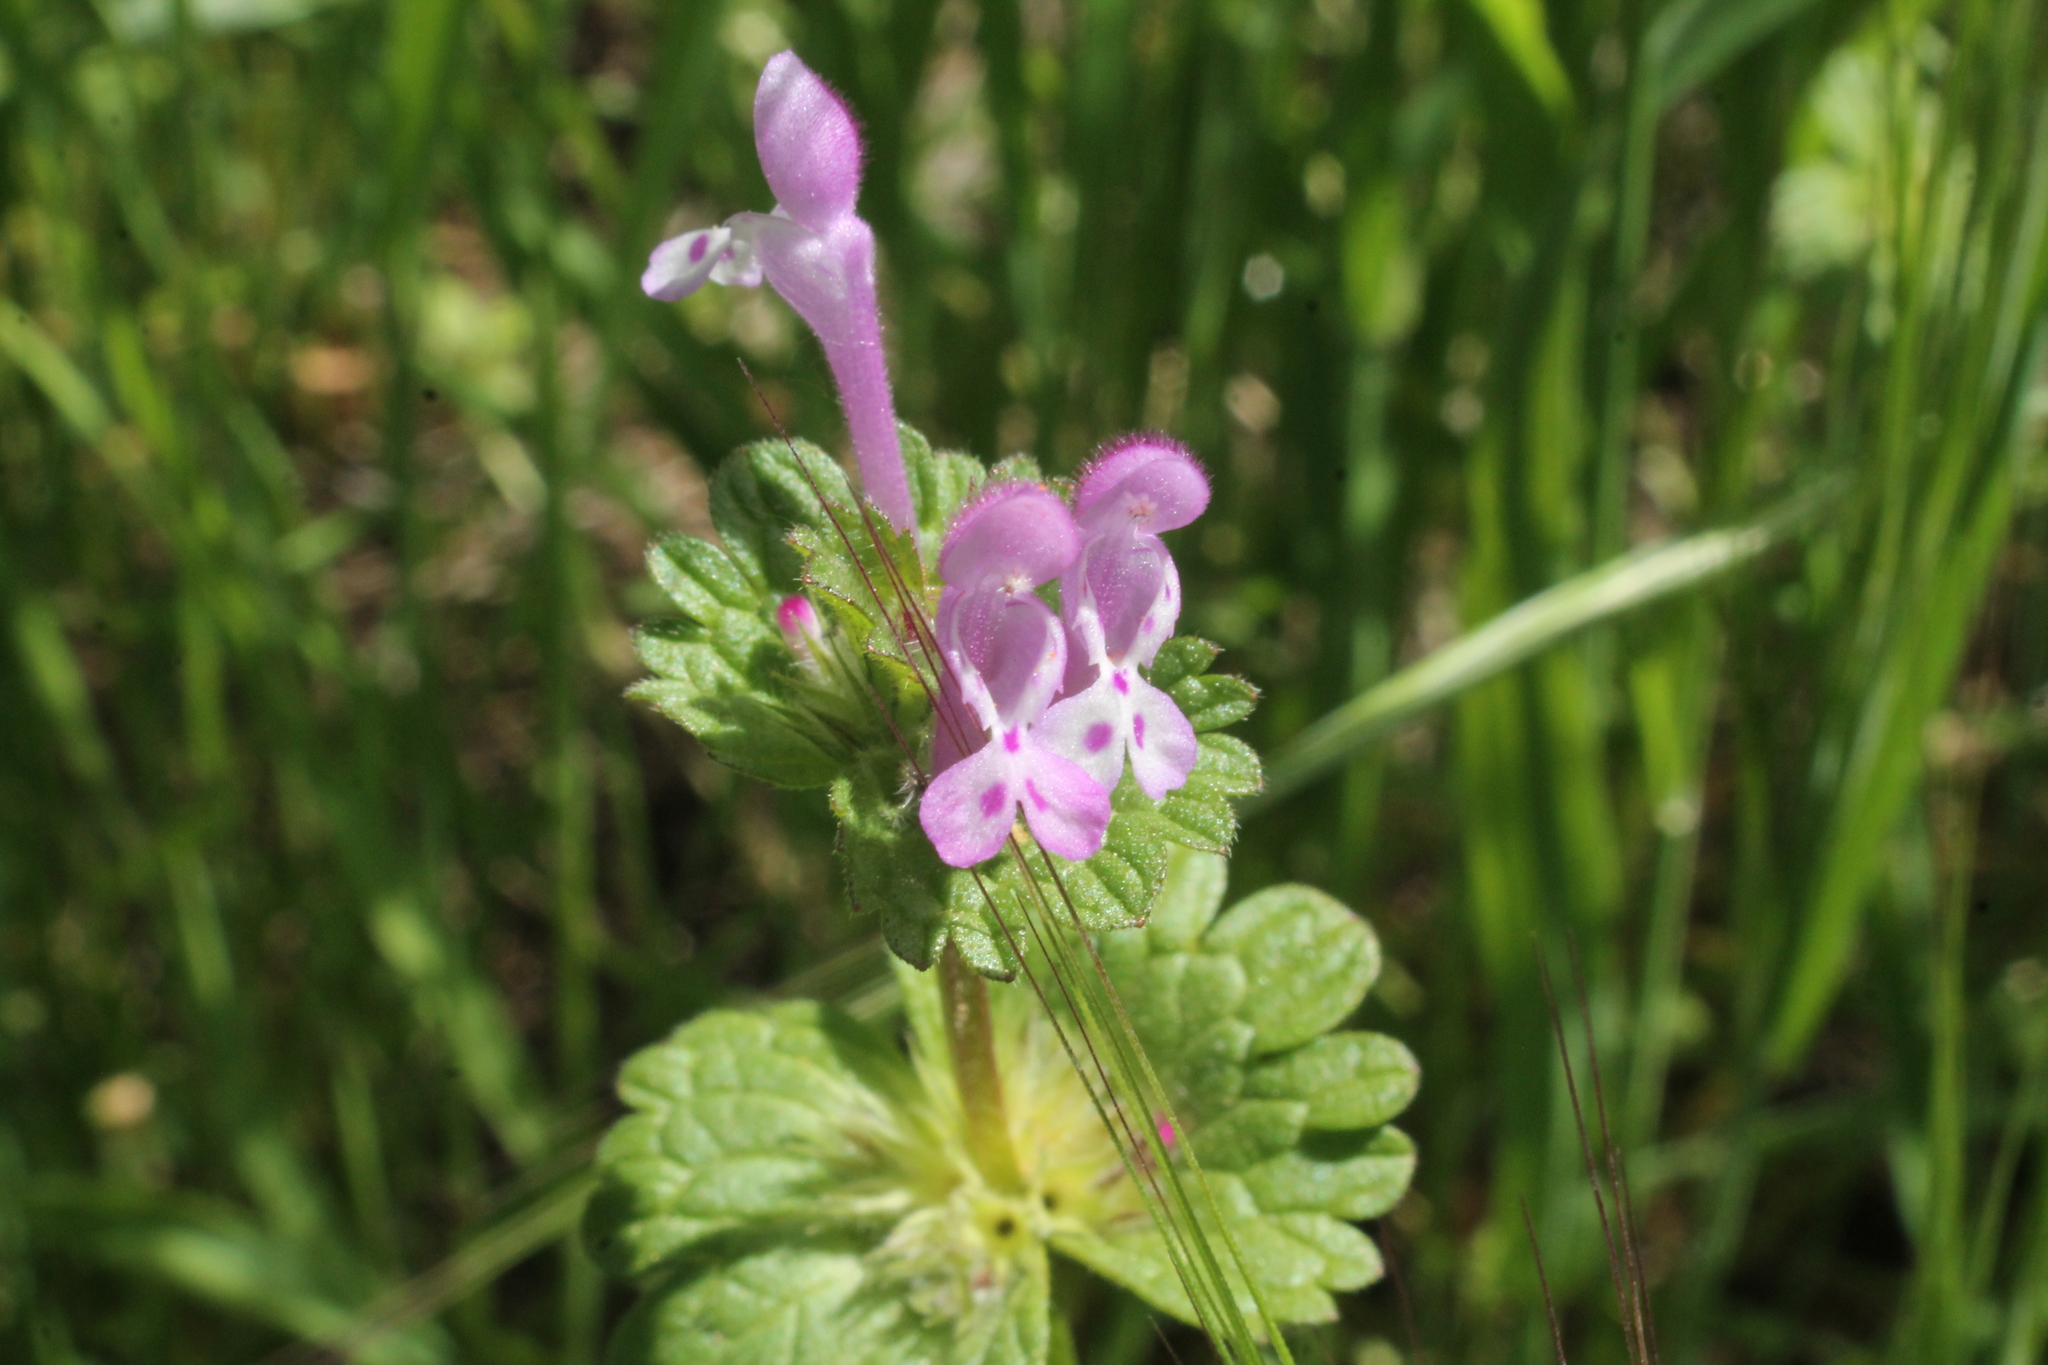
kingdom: Plantae
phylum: Tracheophyta
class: Magnoliopsida
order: Lamiales
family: Lamiaceae
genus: Lamium
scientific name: Lamium amplexicaule
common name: Henbit dead-nettle
